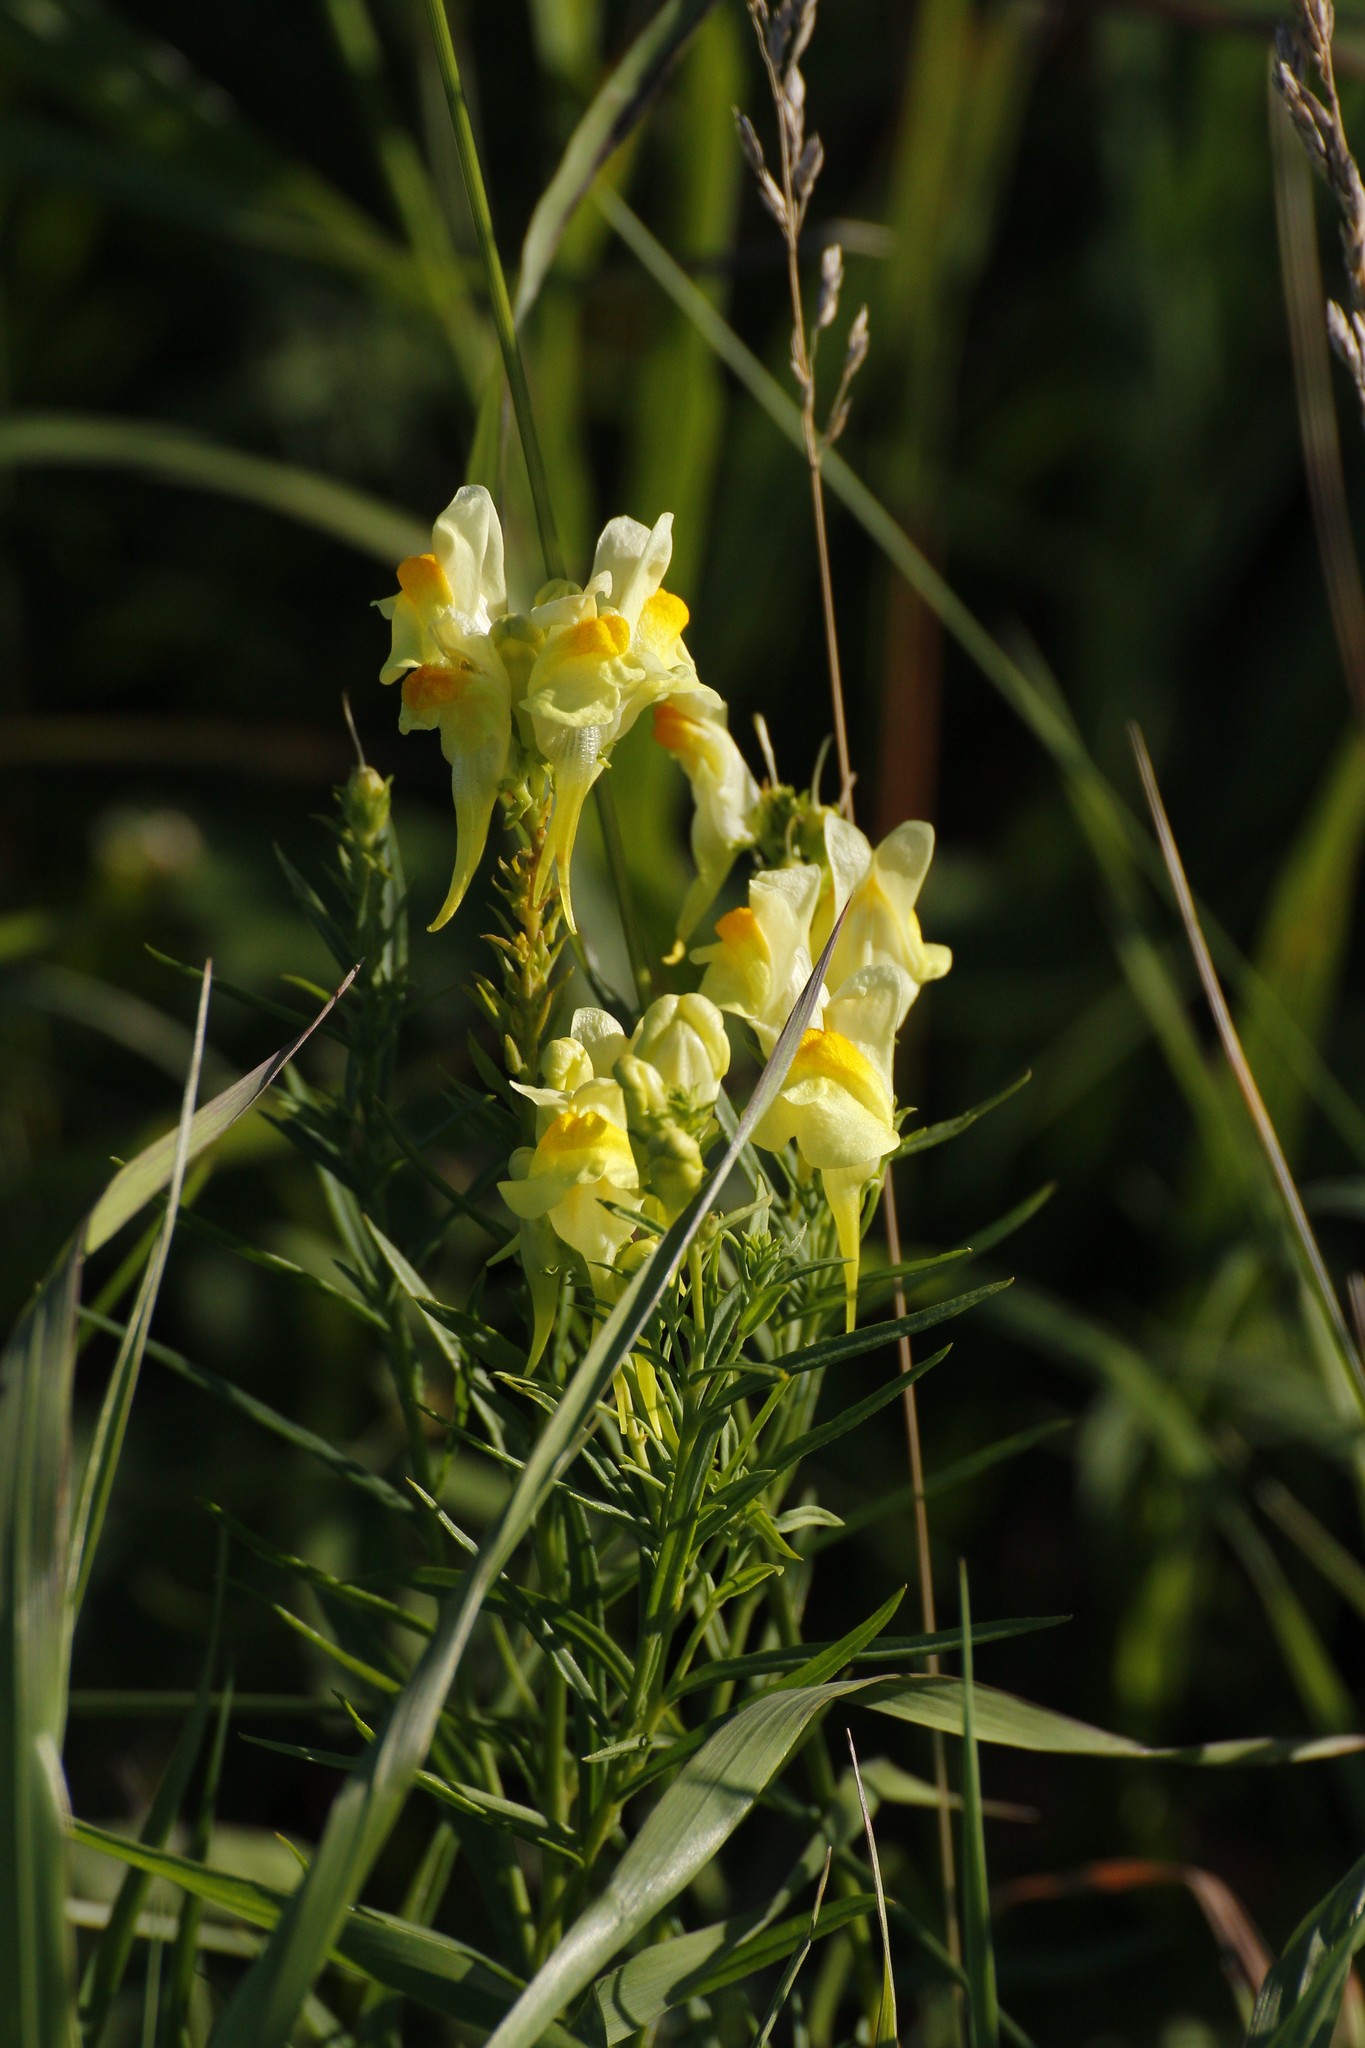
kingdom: Plantae
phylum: Tracheophyta
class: Magnoliopsida
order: Lamiales
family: Plantaginaceae
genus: Linaria
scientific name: Linaria vulgaris
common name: Butter and eggs
